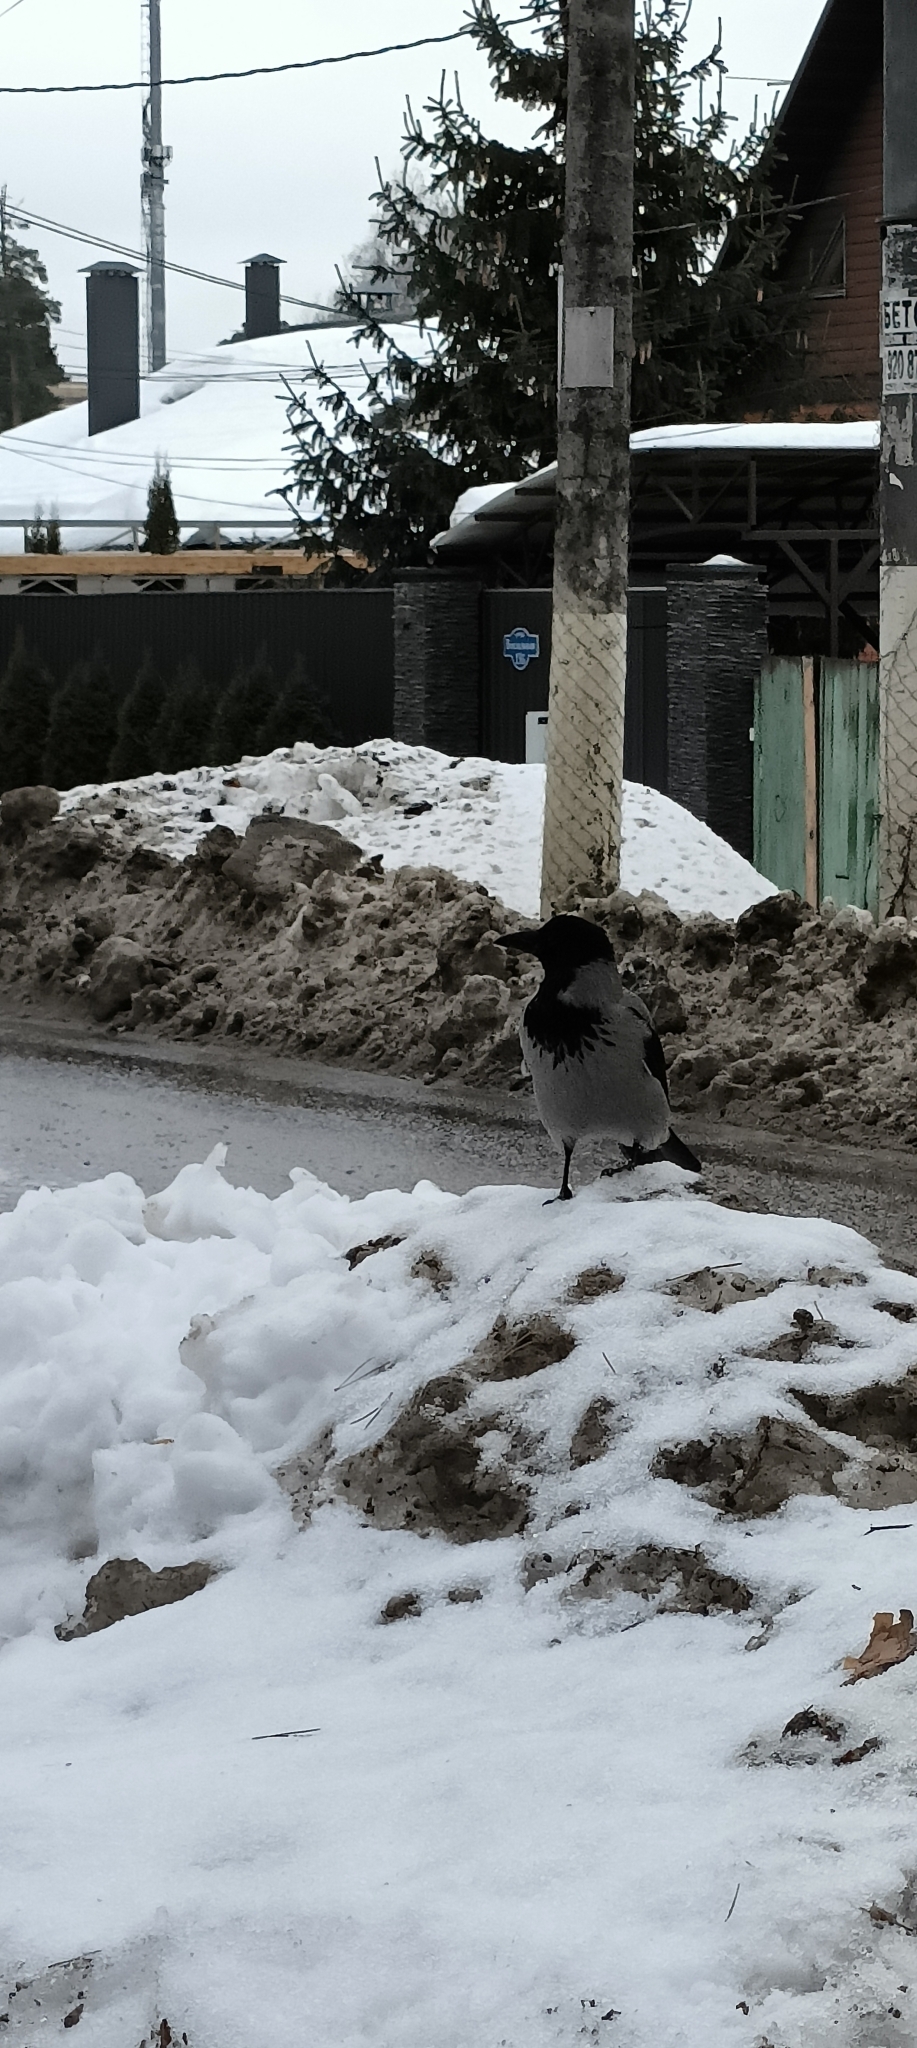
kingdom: Animalia
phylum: Chordata
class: Aves
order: Passeriformes
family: Corvidae
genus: Corvus
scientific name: Corvus cornix
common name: Hooded crow
